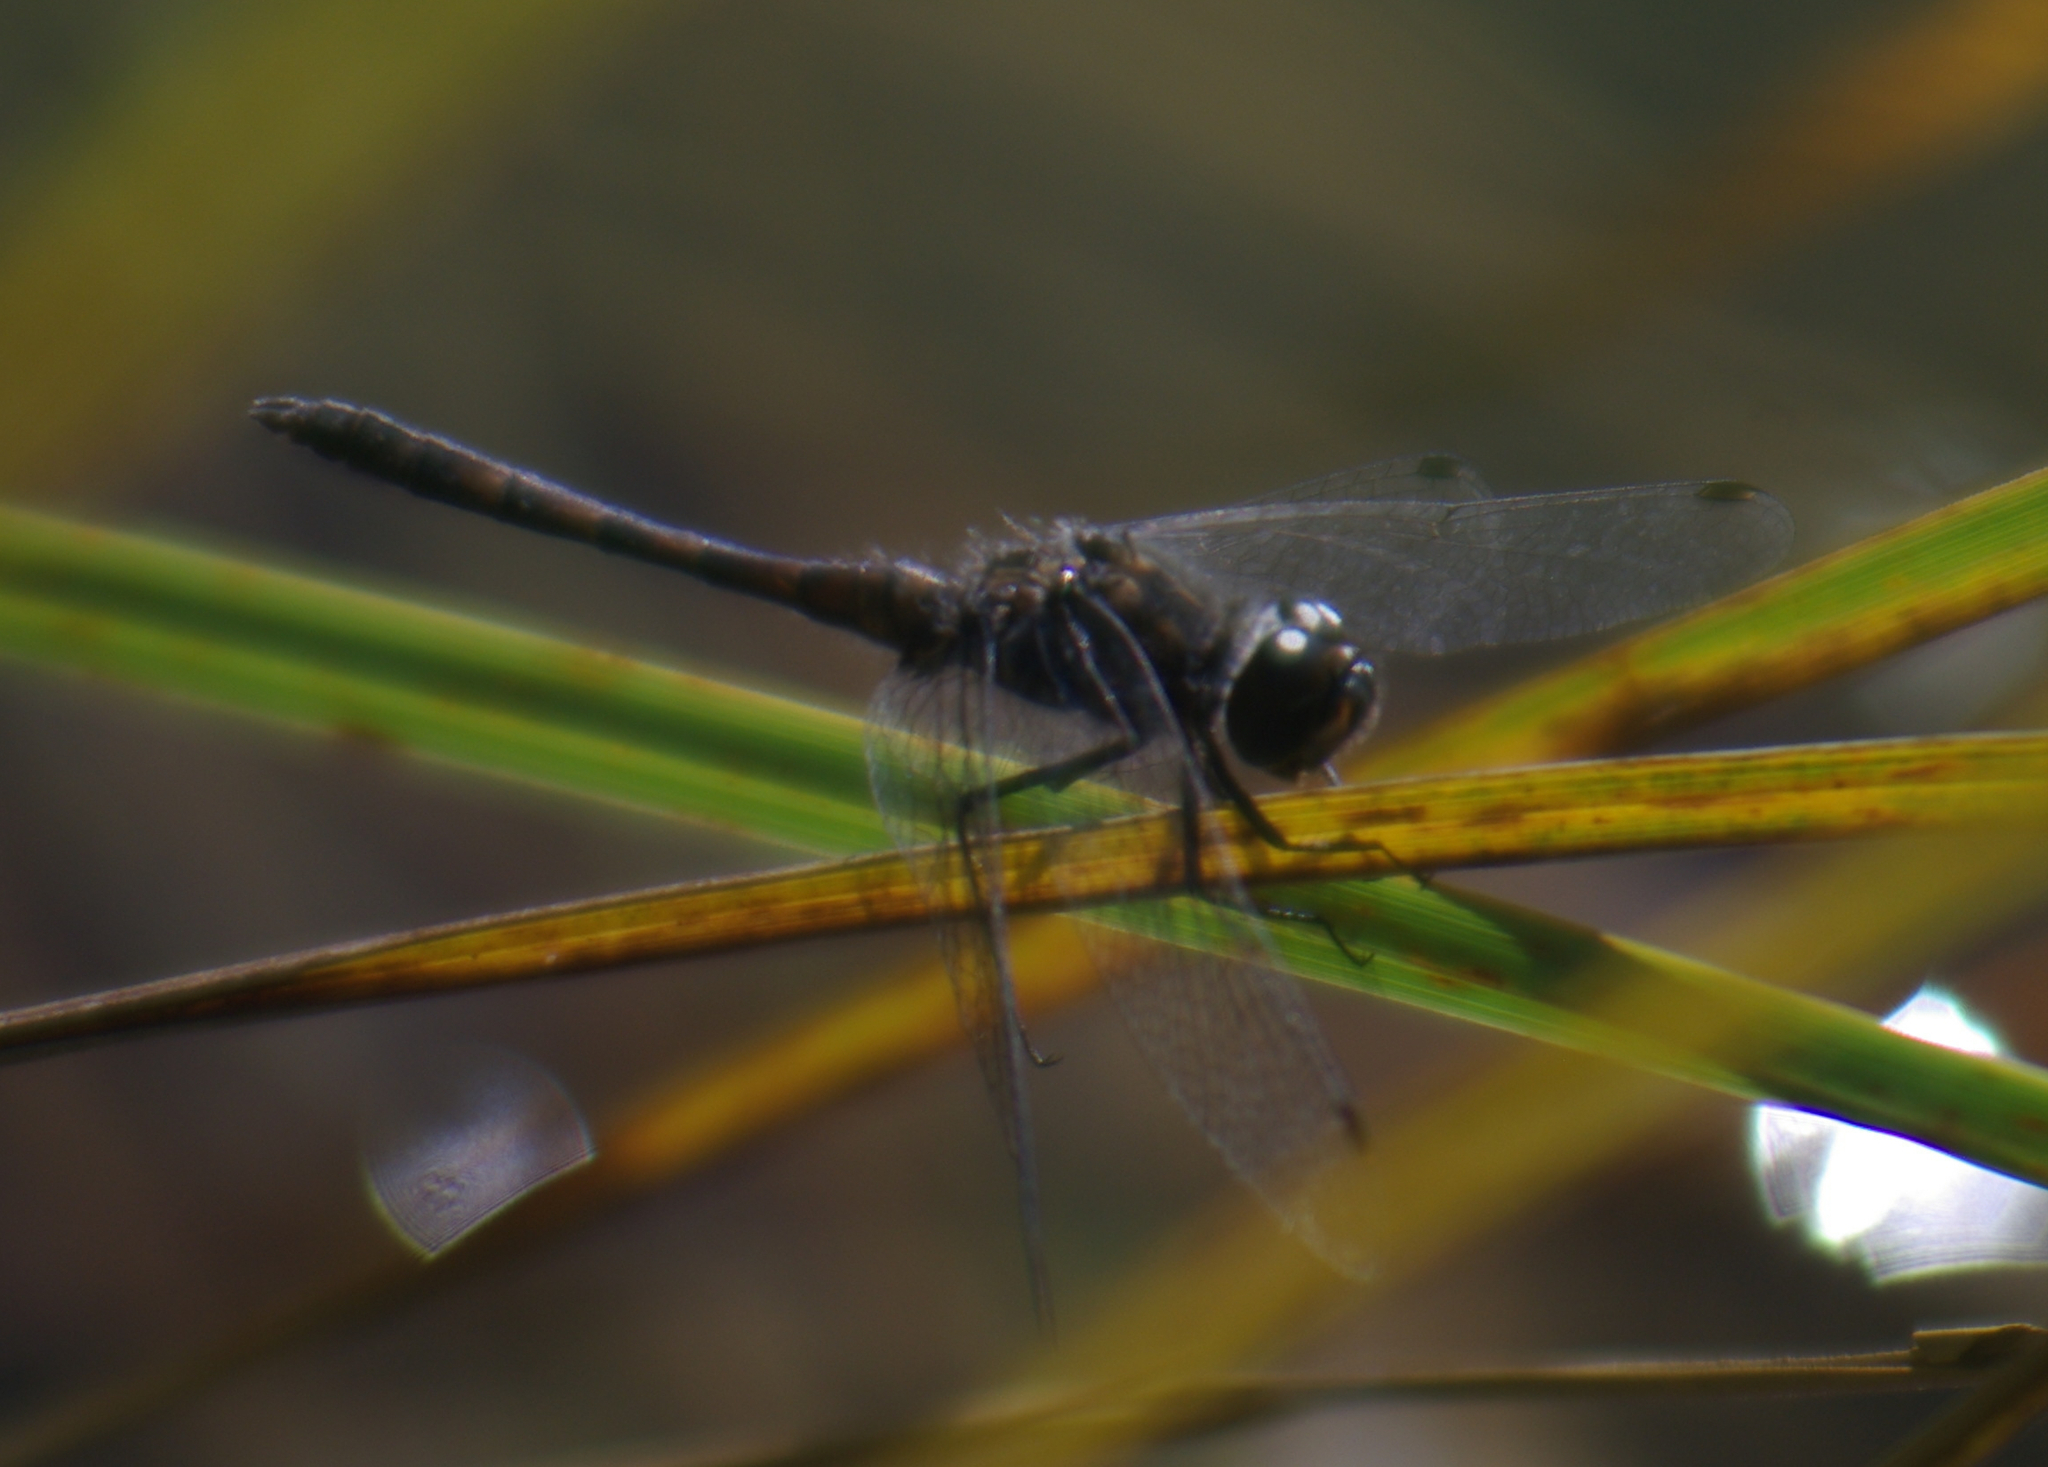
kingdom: Animalia
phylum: Arthropoda
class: Insecta
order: Odonata
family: Libellulidae
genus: Sympetrum
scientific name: Sympetrum danae
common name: Black darter
